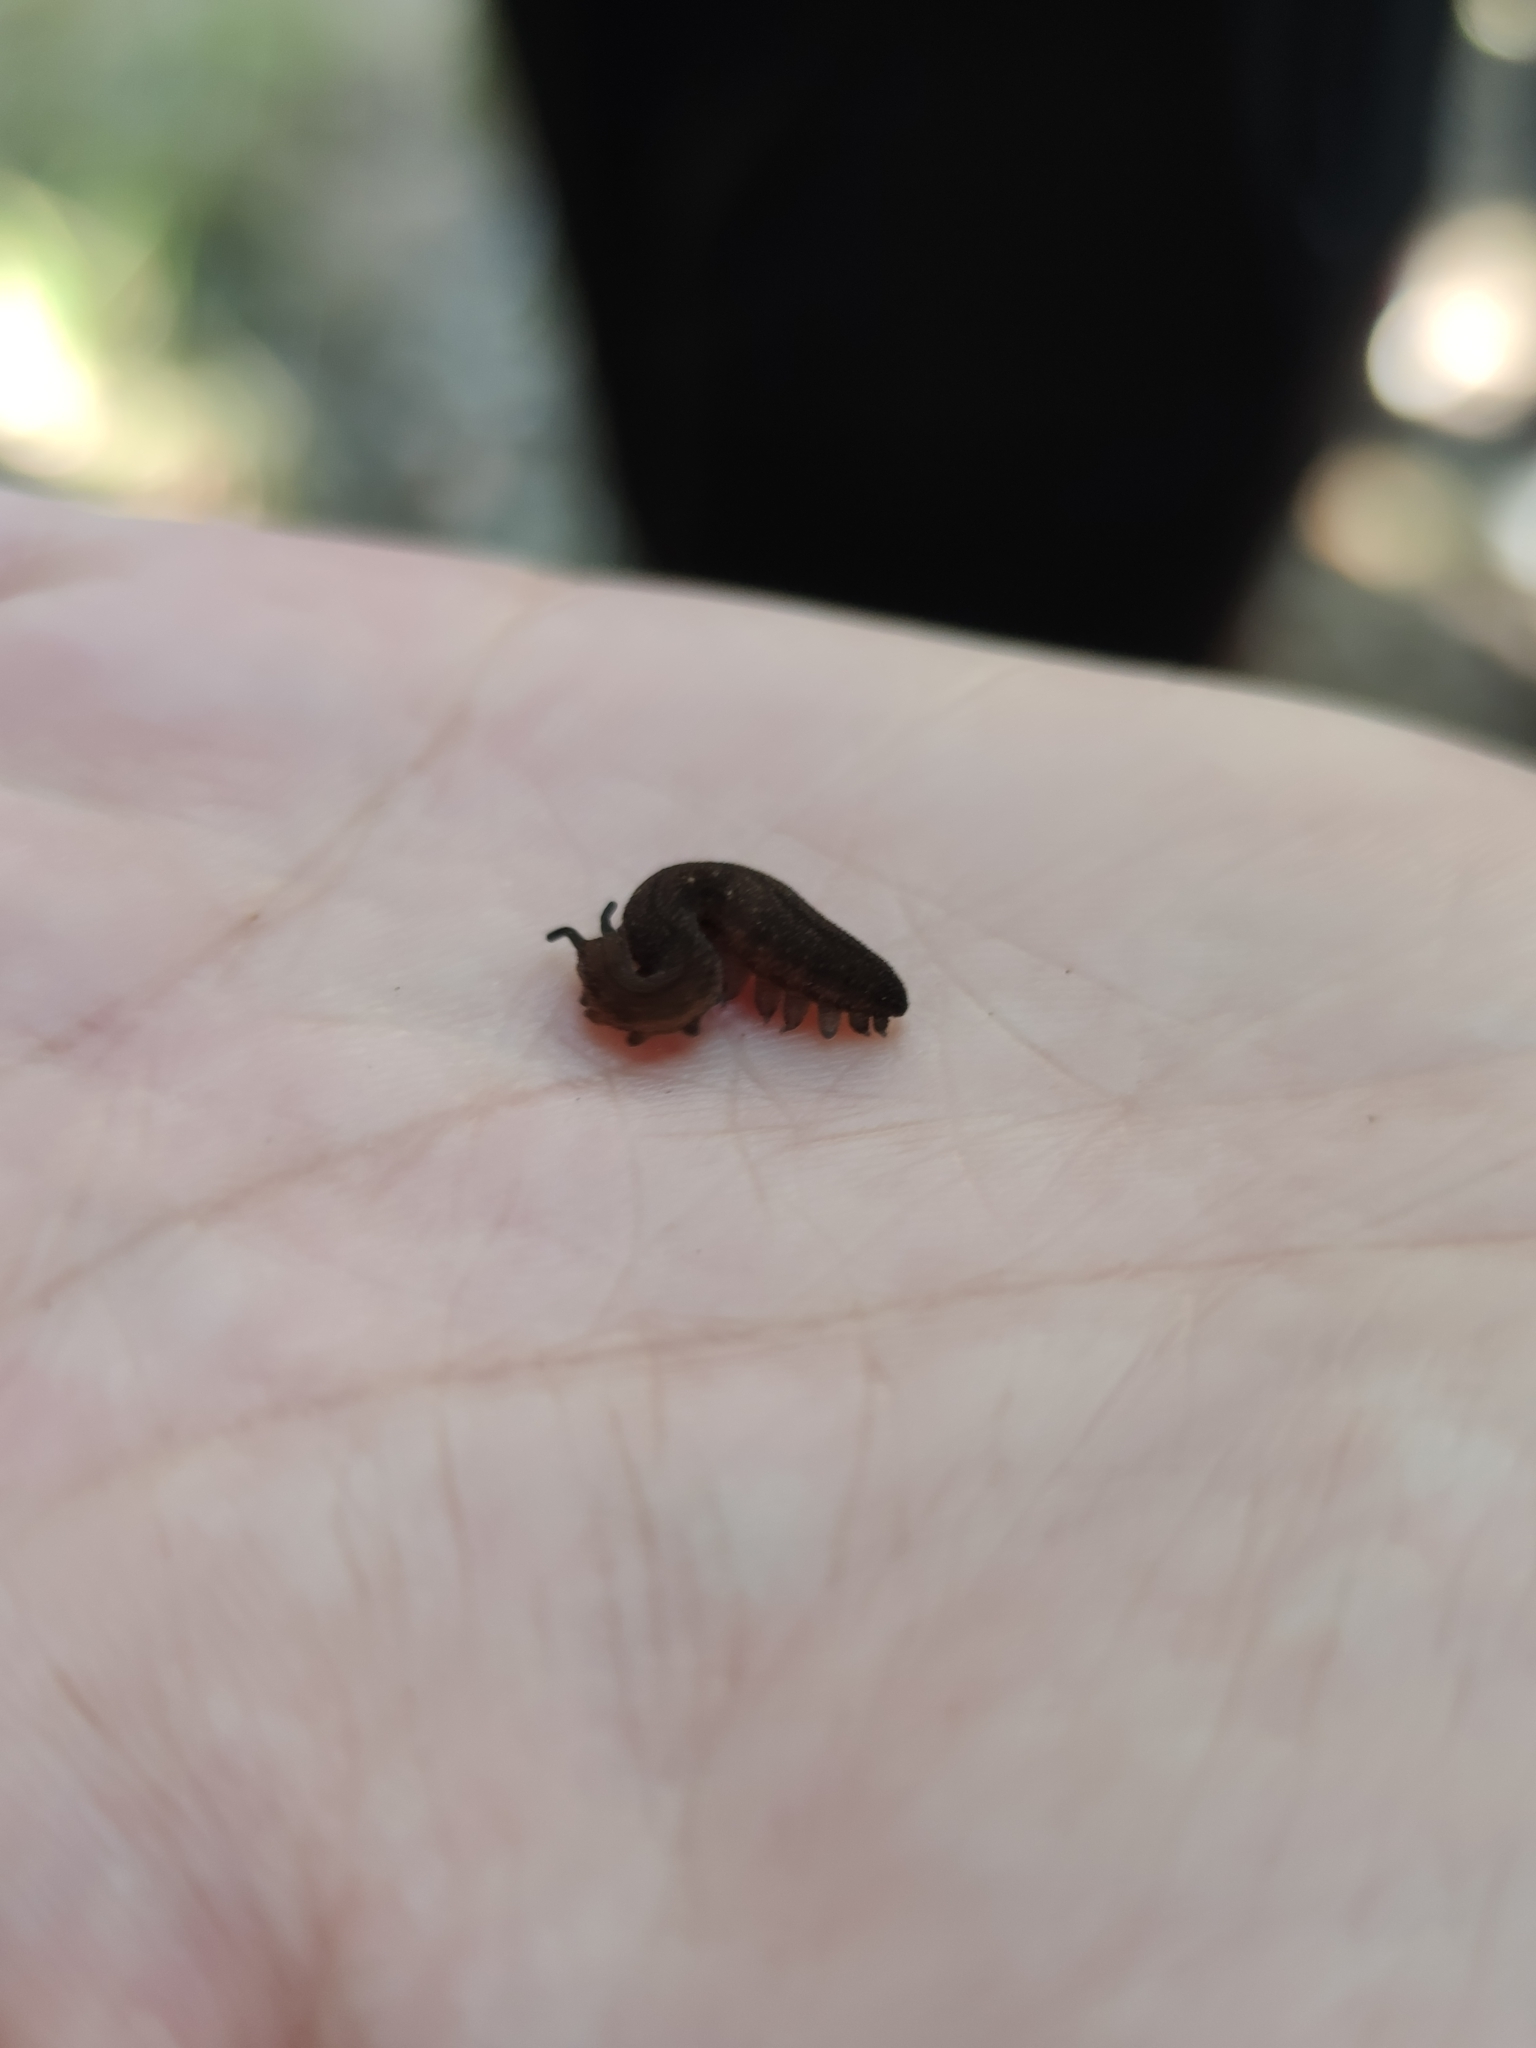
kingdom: Animalia
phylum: Onychophora
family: Peripatopsidae
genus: Peripatopsis
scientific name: Peripatopsis lawrencei
